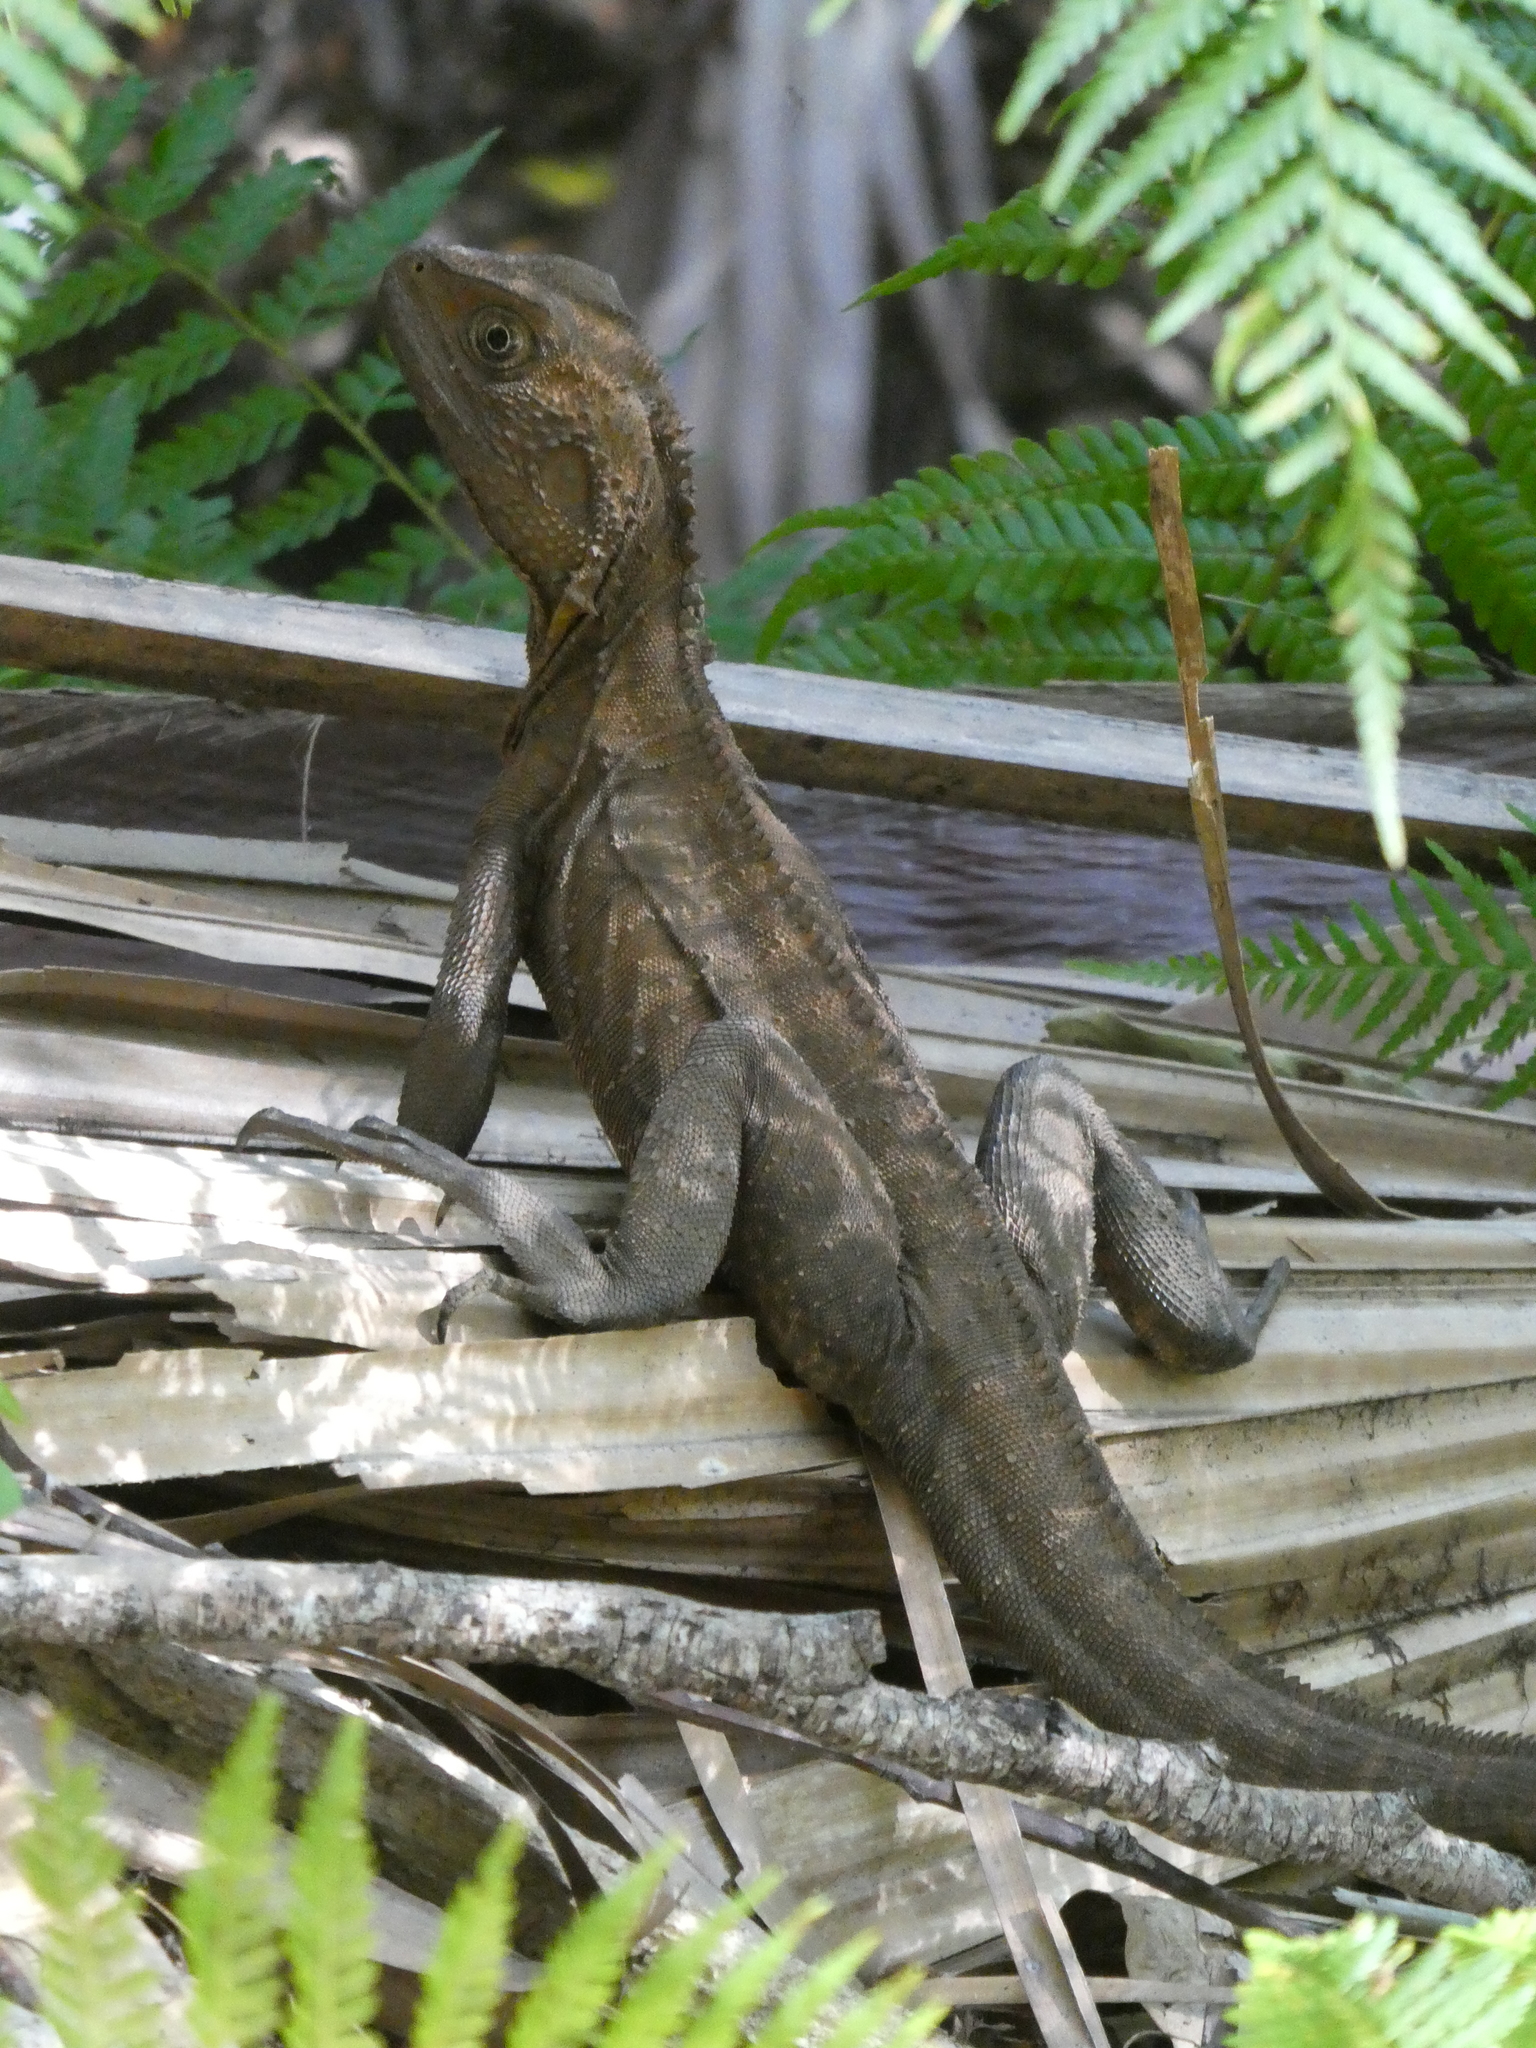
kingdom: Animalia
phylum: Chordata
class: Squamata
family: Agamidae
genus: Intellagama
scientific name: Intellagama lesueurii
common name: Eastern water dragon
